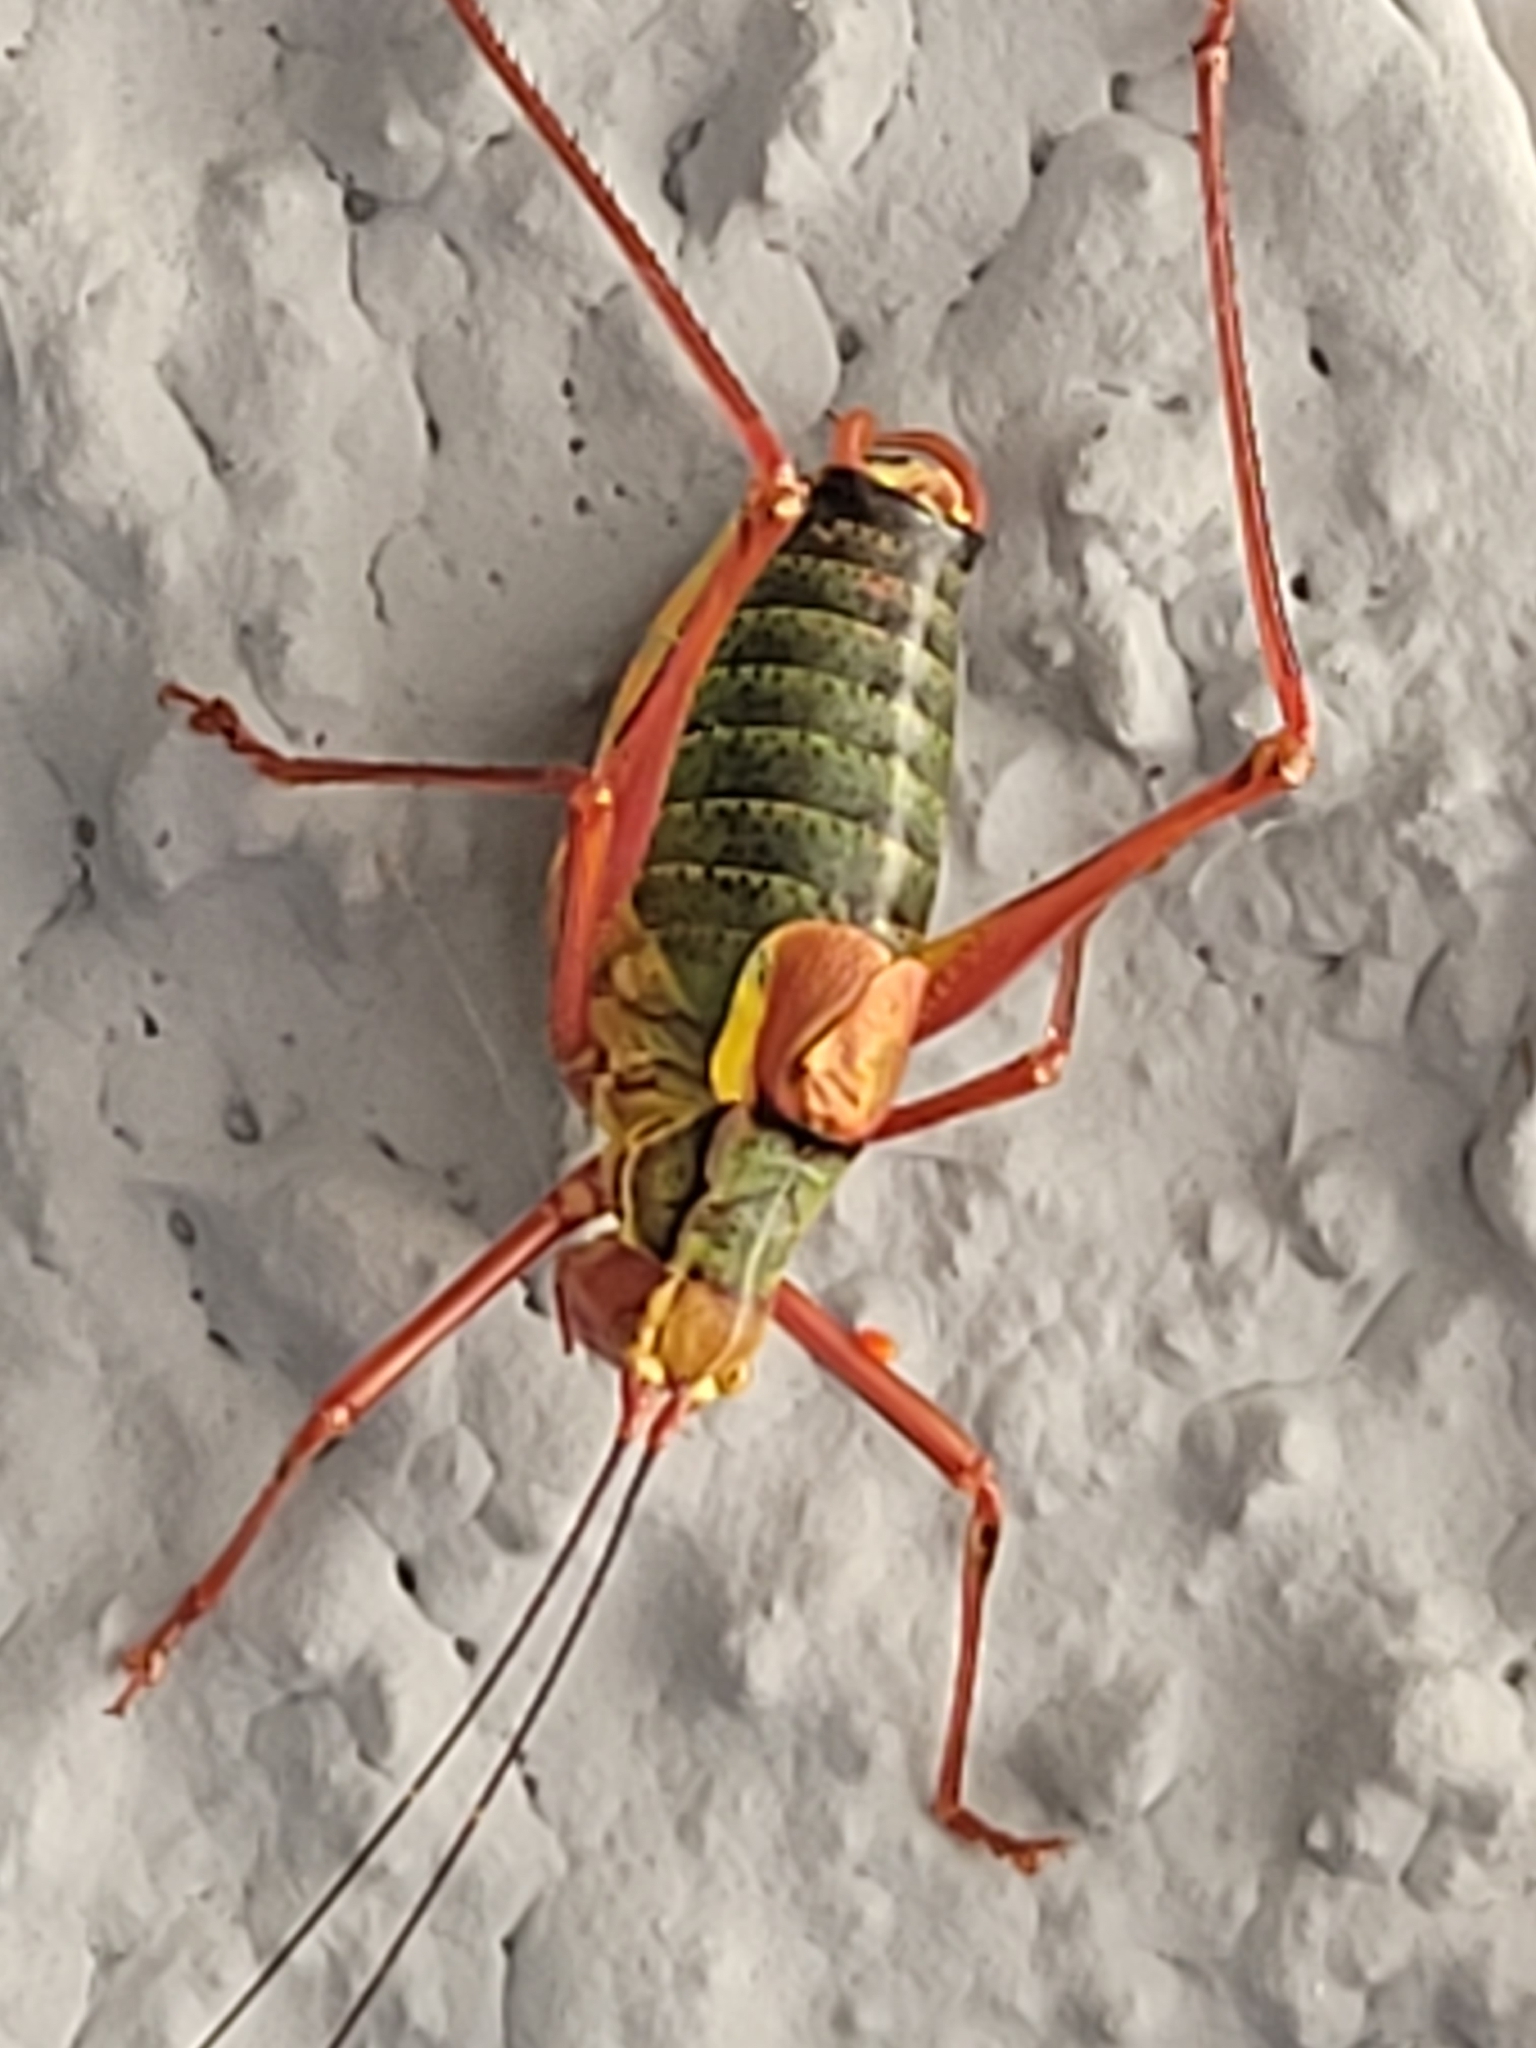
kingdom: Animalia
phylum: Arthropoda
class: Insecta
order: Orthoptera
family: Tettigoniidae
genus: Barbitistes
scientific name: Barbitistes serricauda
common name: Saw-tailed bush-cricket
